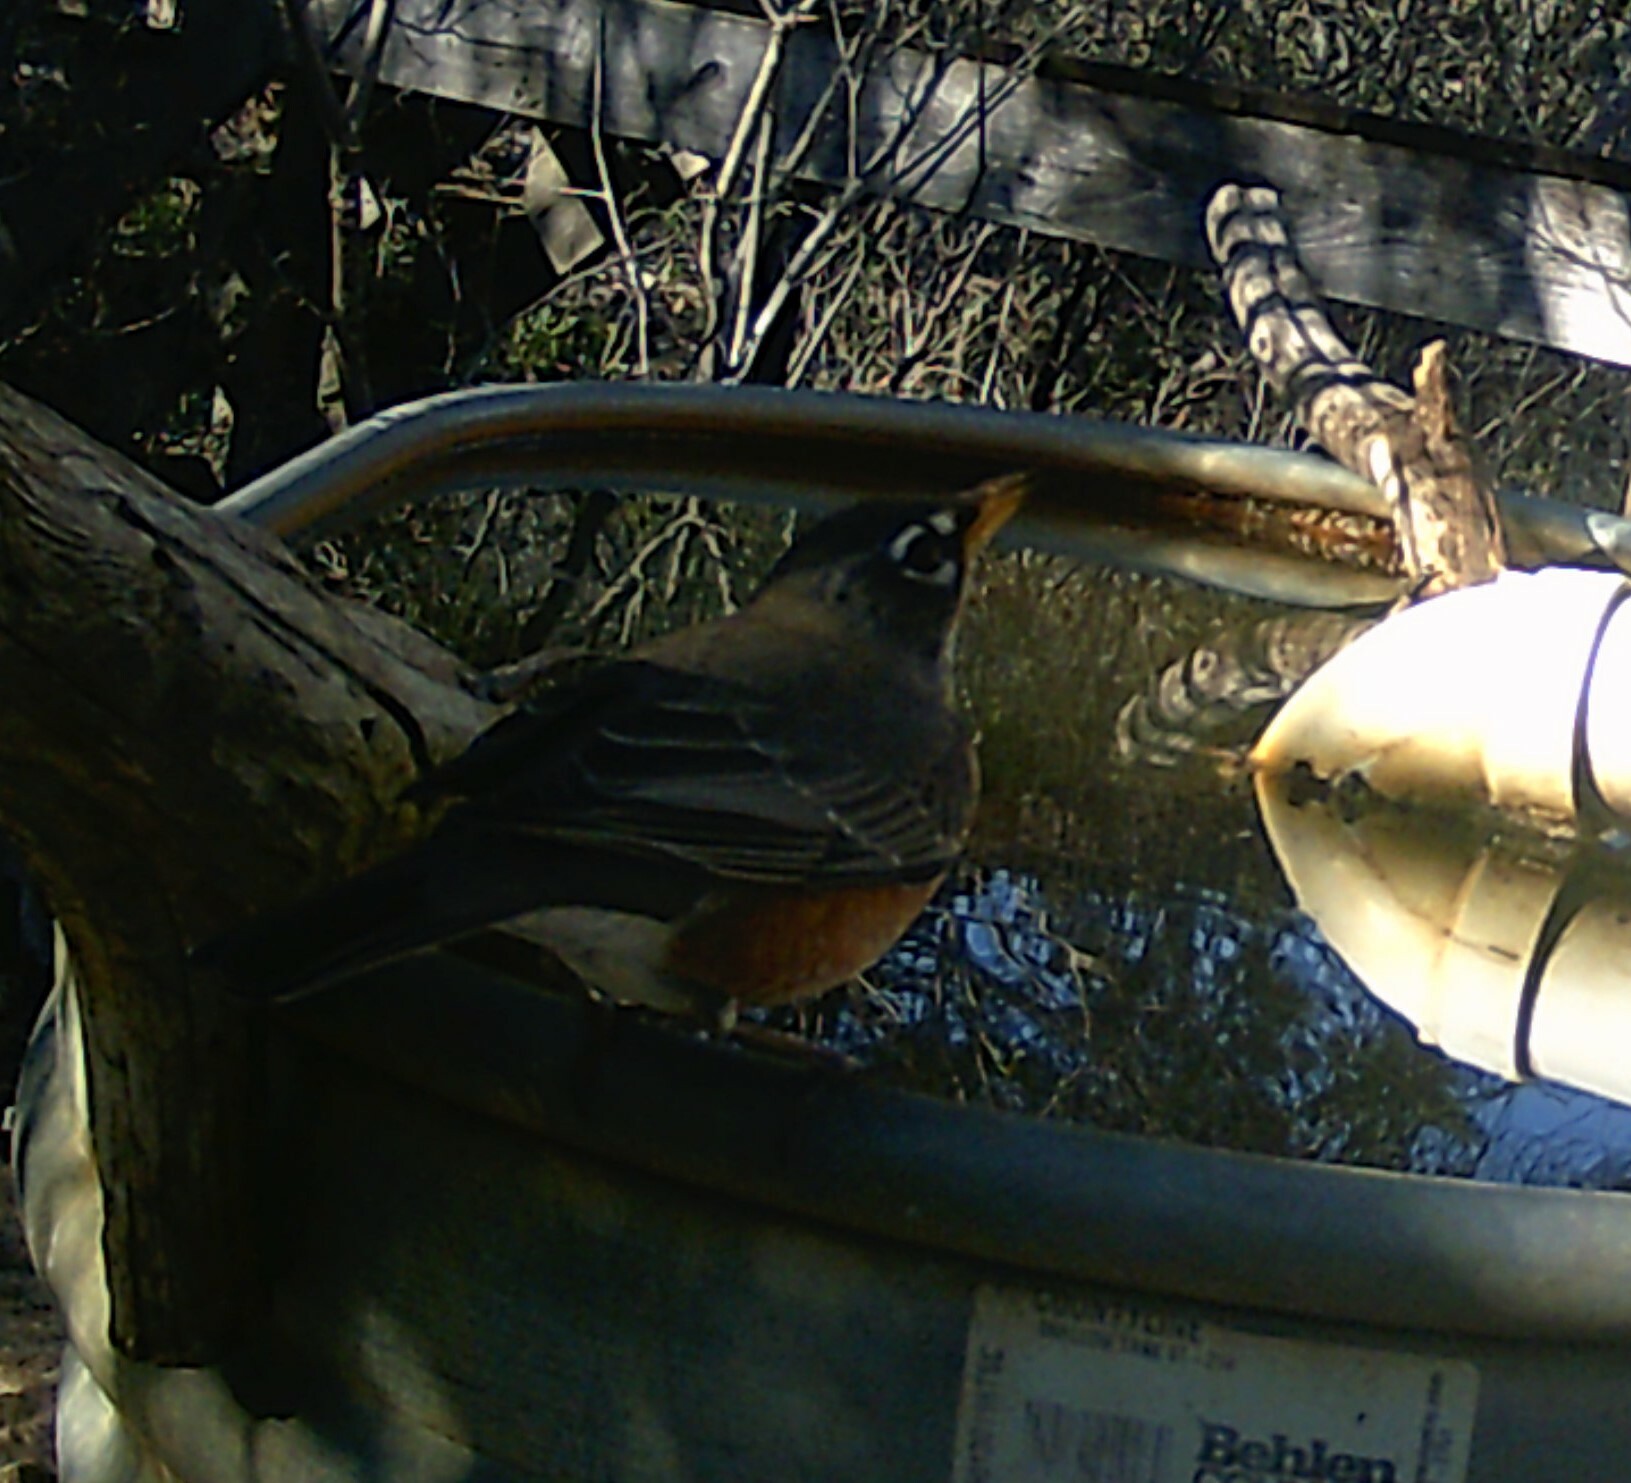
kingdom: Animalia
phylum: Chordata
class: Aves
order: Passeriformes
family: Turdidae
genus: Turdus
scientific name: Turdus migratorius
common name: American robin
